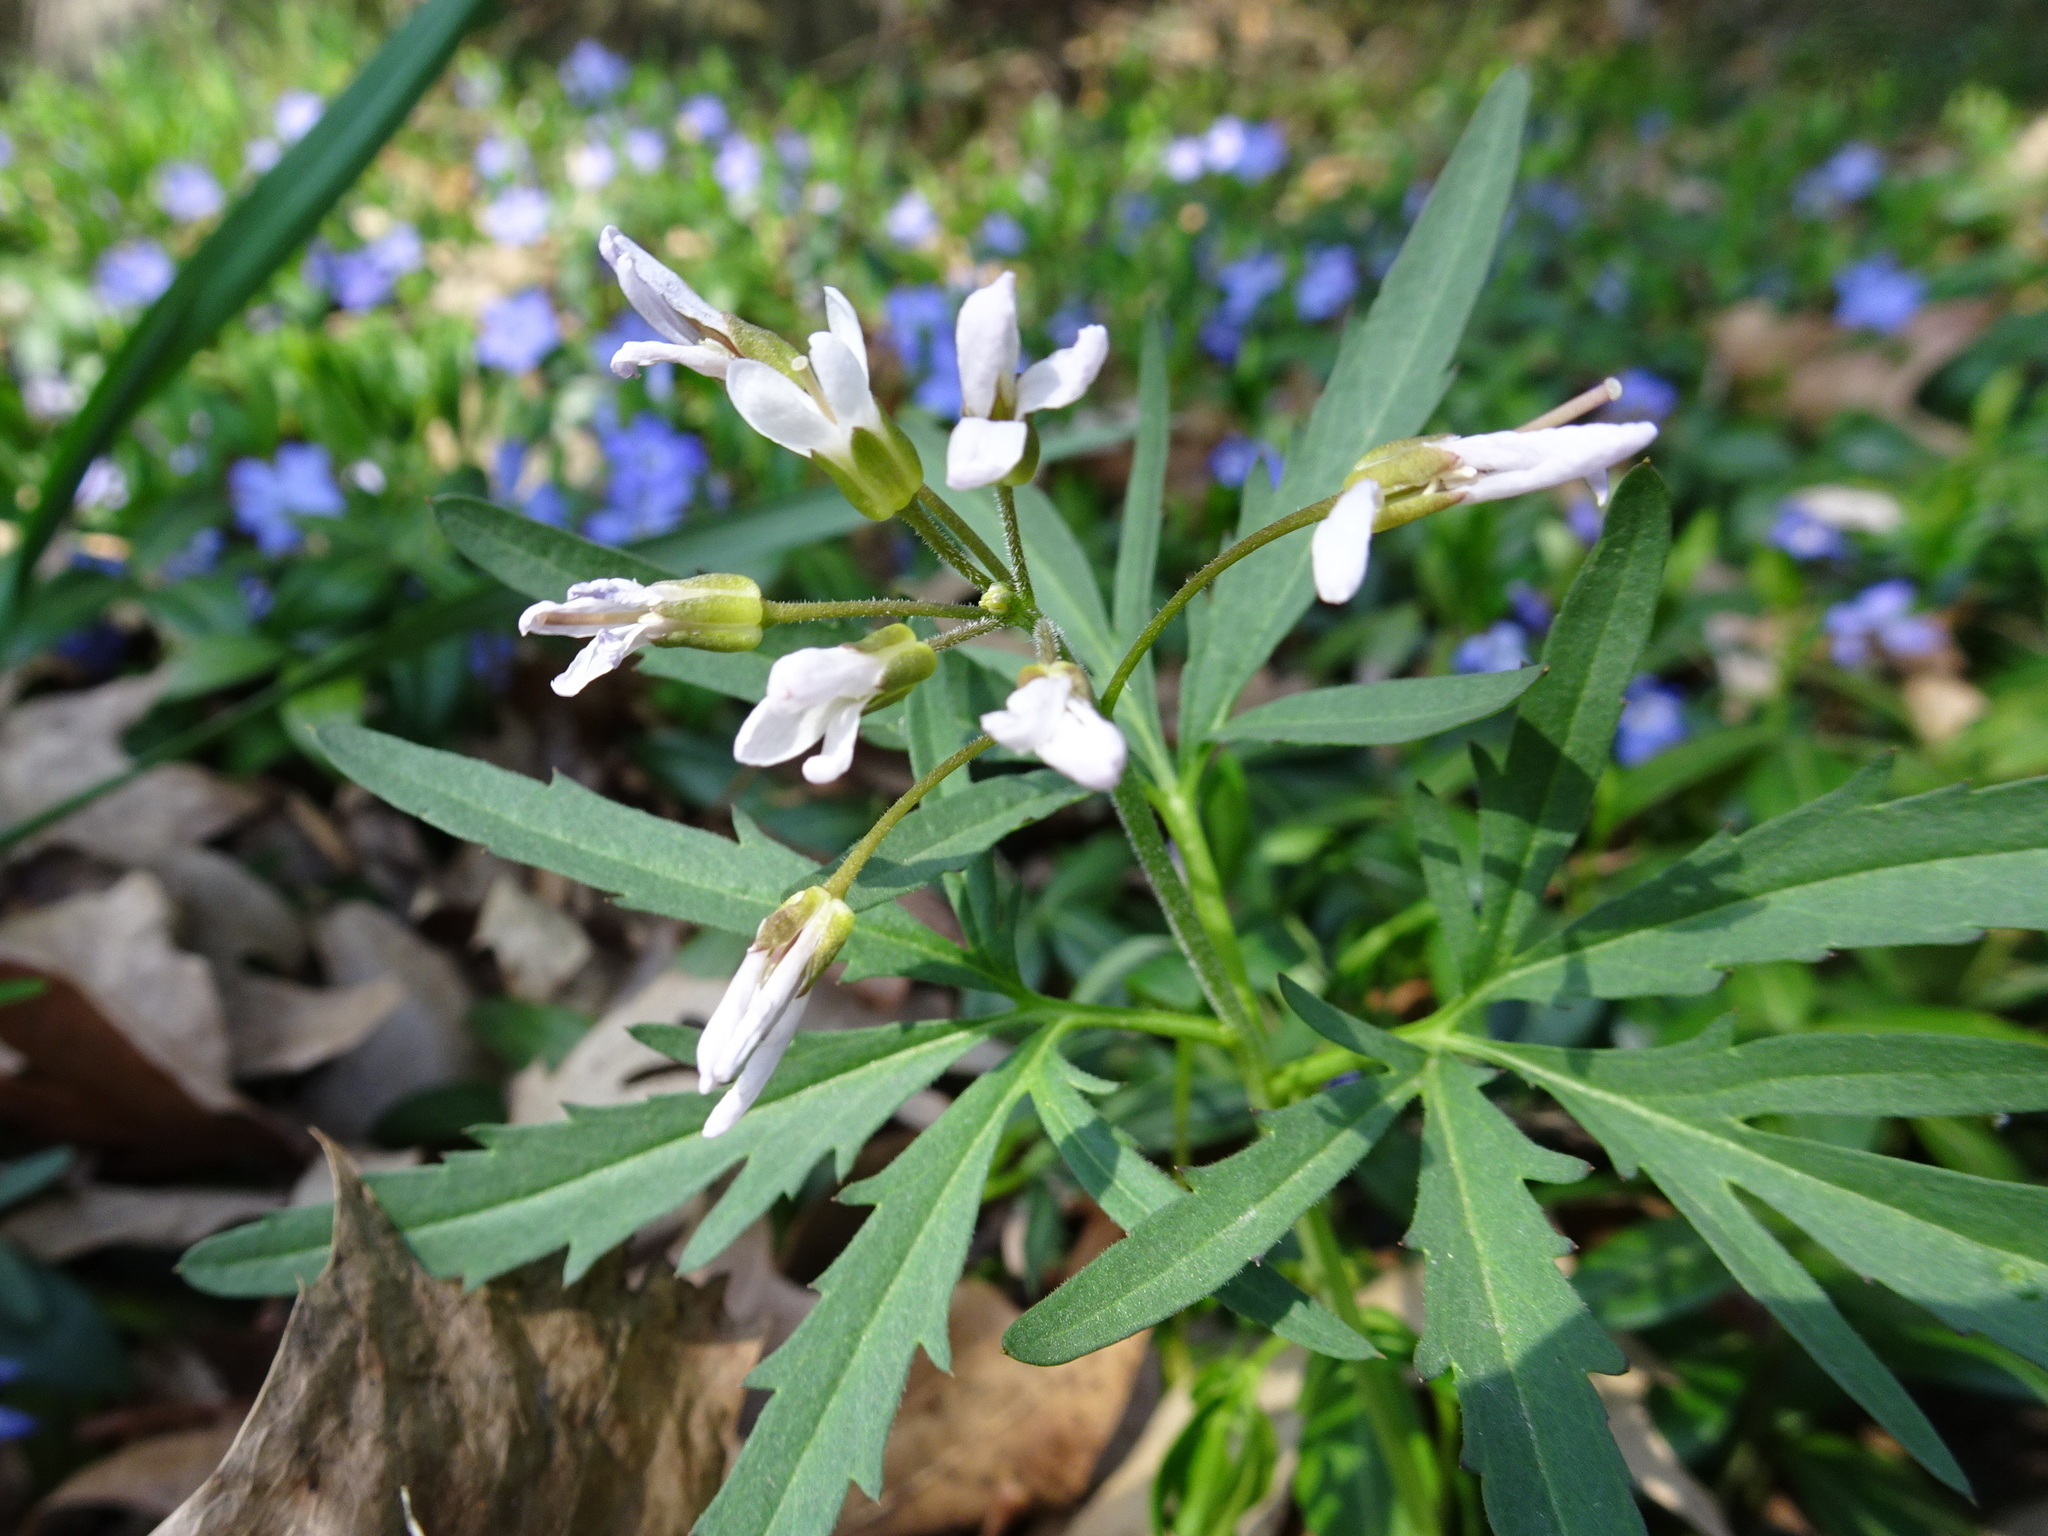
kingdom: Plantae
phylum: Tracheophyta
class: Magnoliopsida
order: Brassicales
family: Brassicaceae
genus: Cardamine
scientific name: Cardamine concatenata
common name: Cut-leaf toothcup
